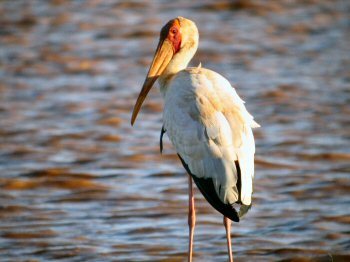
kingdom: Animalia
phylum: Chordata
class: Aves
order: Ciconiiformes
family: Ciconiidae
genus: Mycteria
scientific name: Mycteria ibis
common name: Yellow-billed stork
